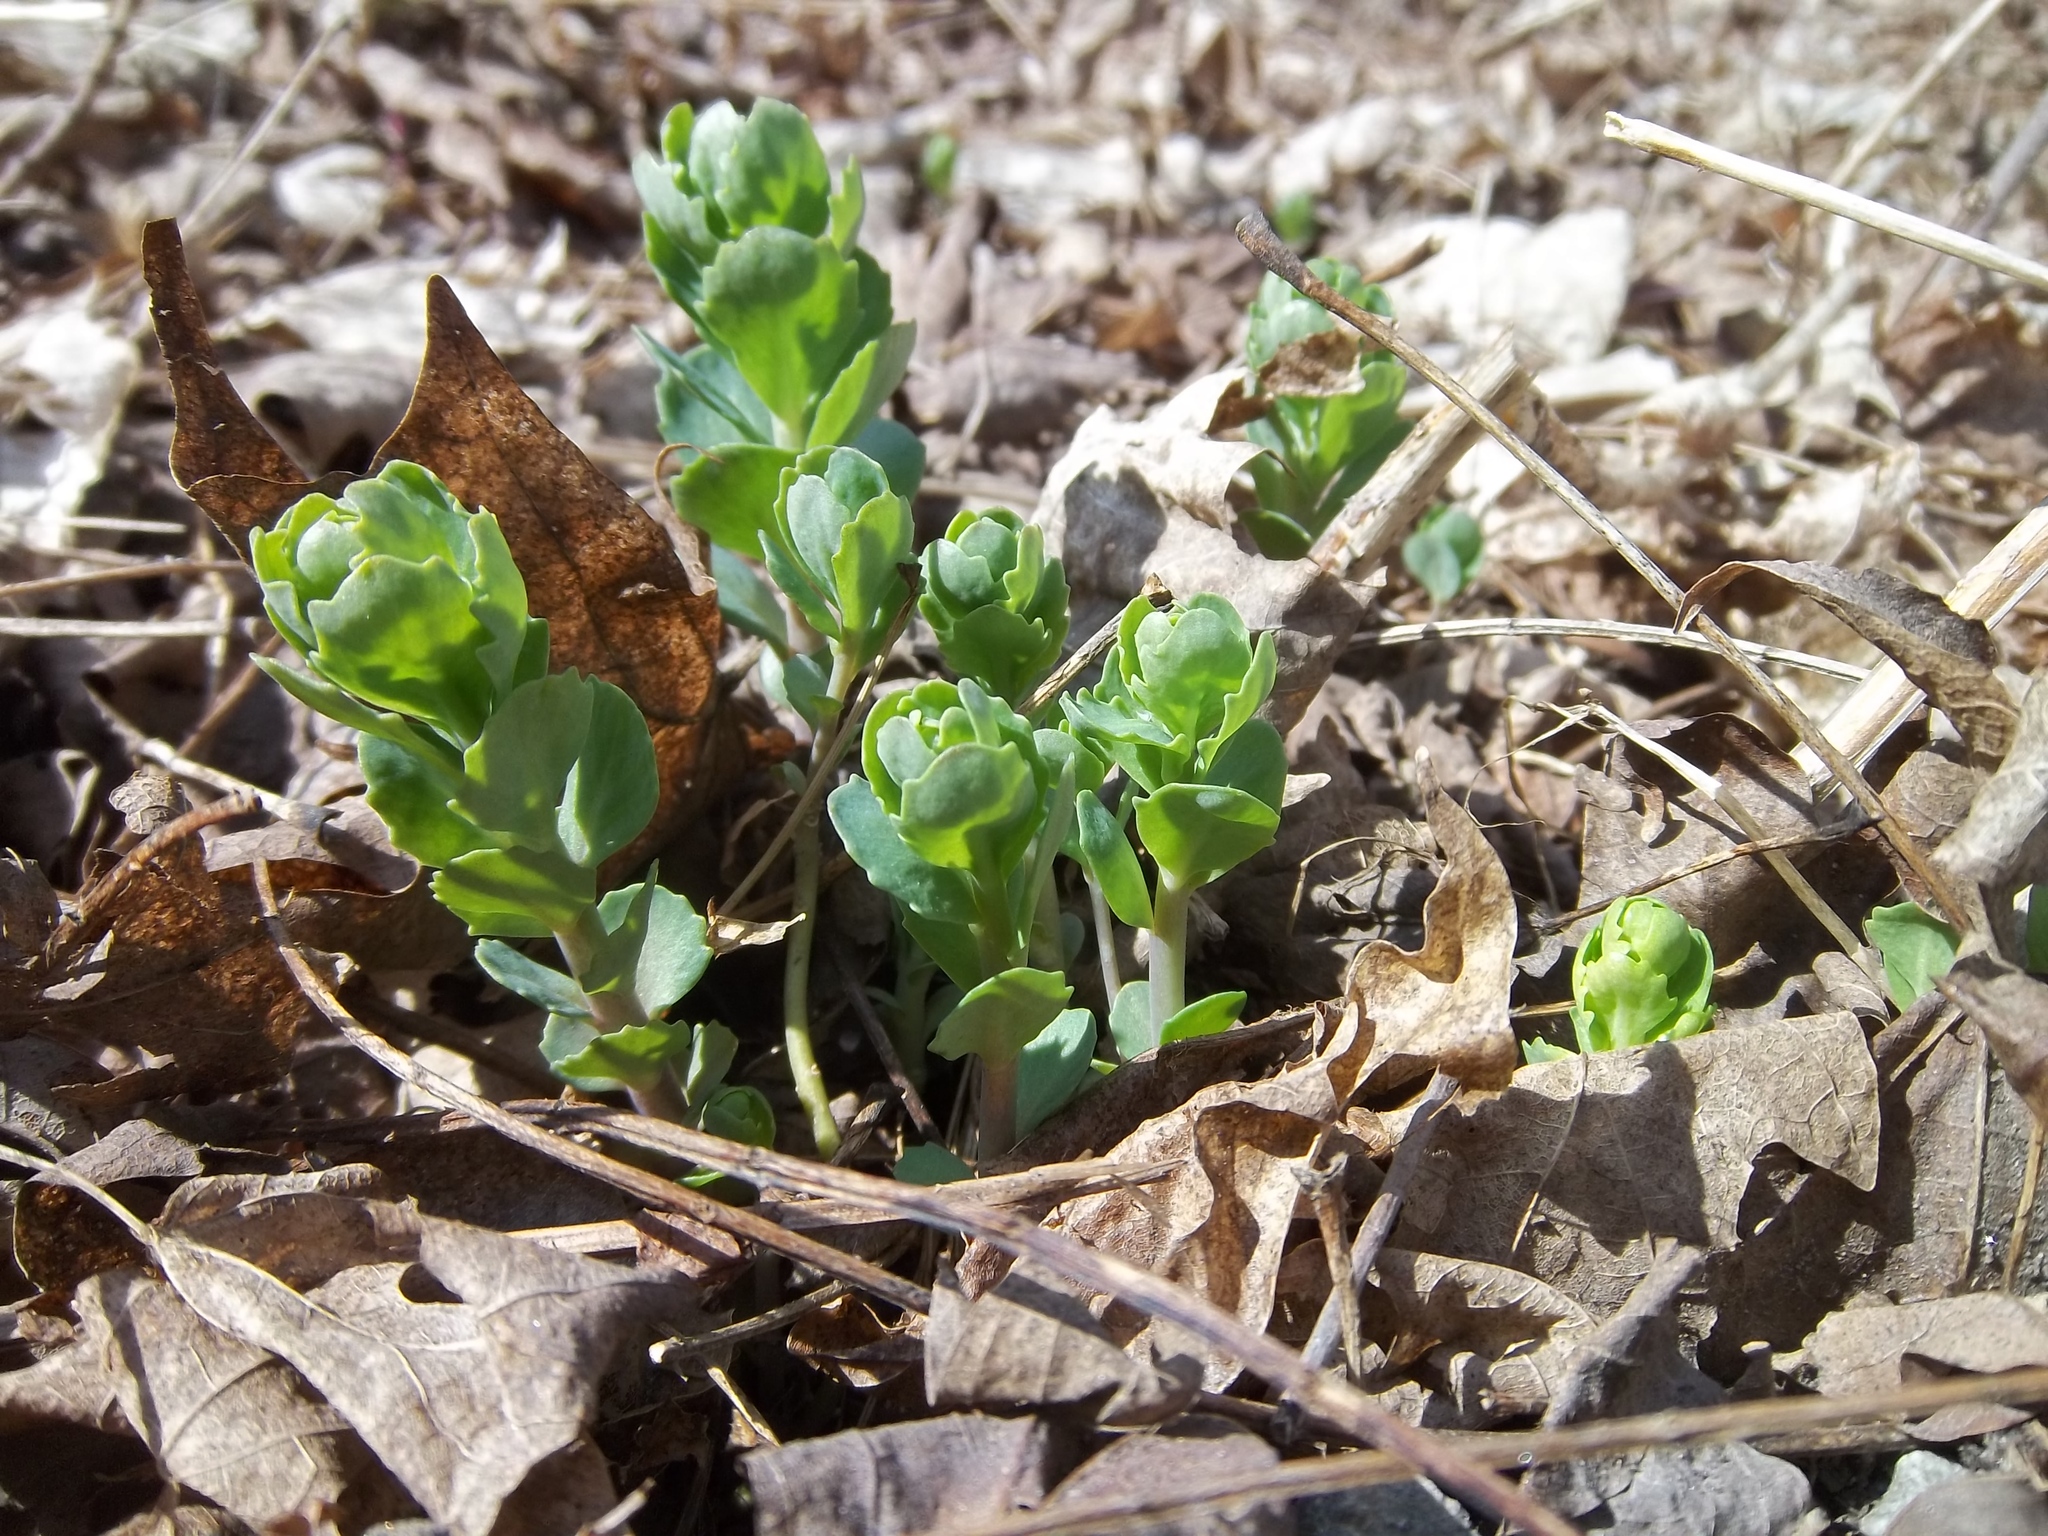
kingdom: Plantae
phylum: Tracheophyta
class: Magnoliopsida
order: Saxifragales
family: Crassulaceae
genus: Hylotelephium
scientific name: Hylotelephium telephium
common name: Live-forever
